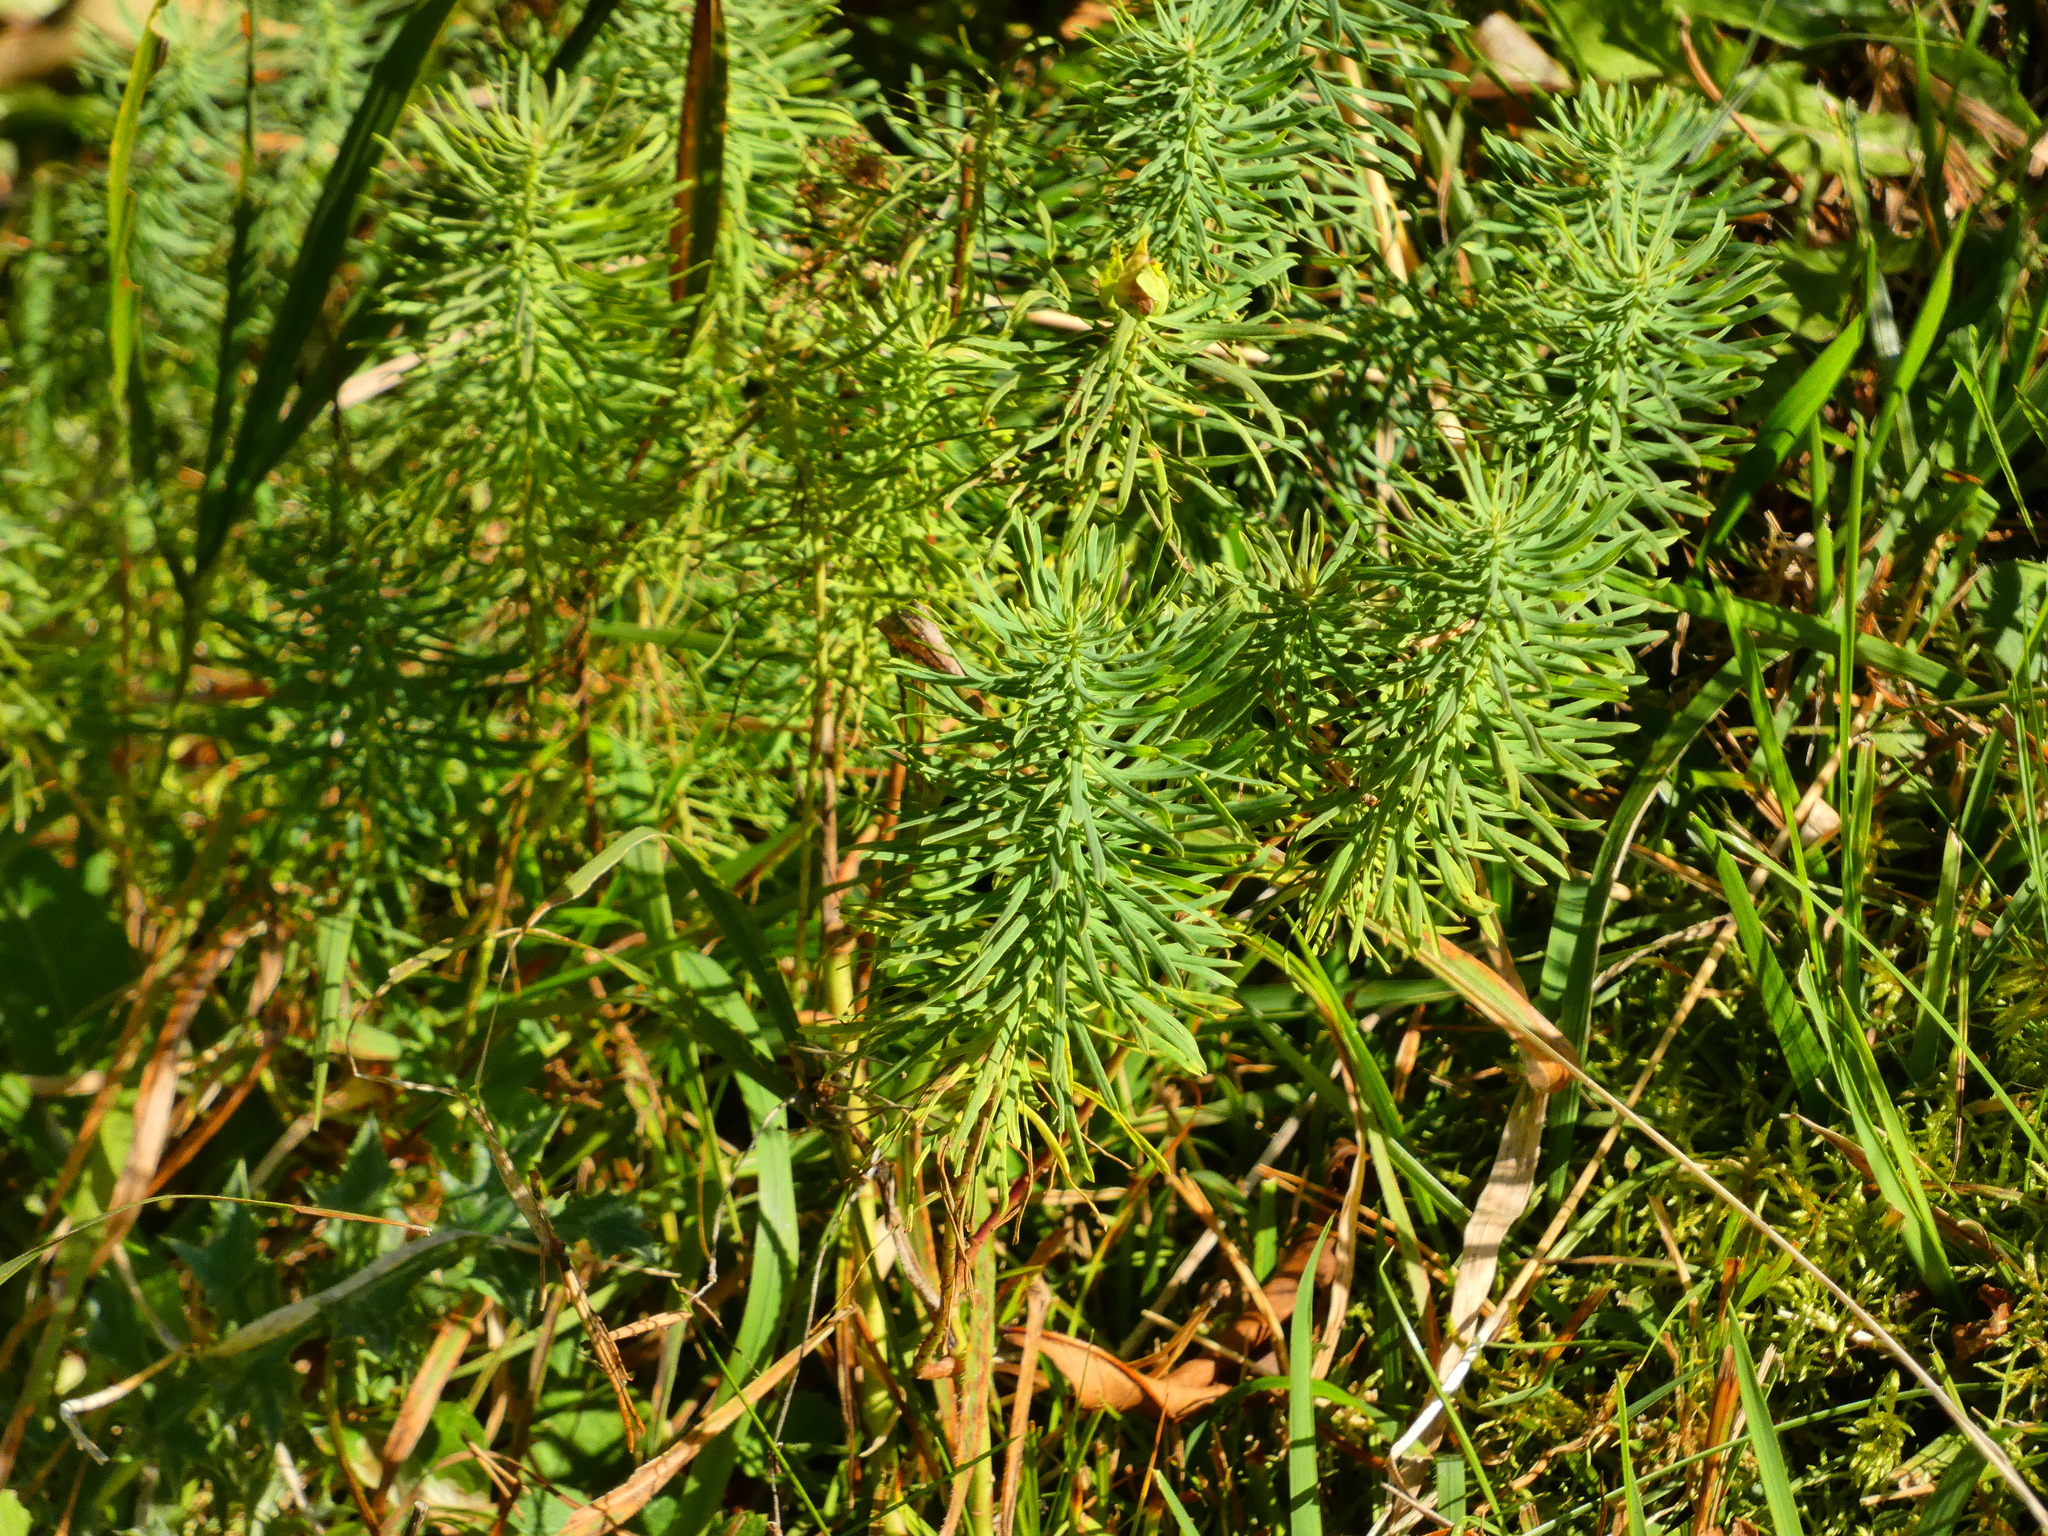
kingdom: Plantae
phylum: Tracheophyta
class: Magnoliopsida
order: Malpighiales
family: Euphorbiaceae
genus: Euphorbia
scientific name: Euphorbia cyparissias
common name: Cypress spurge
